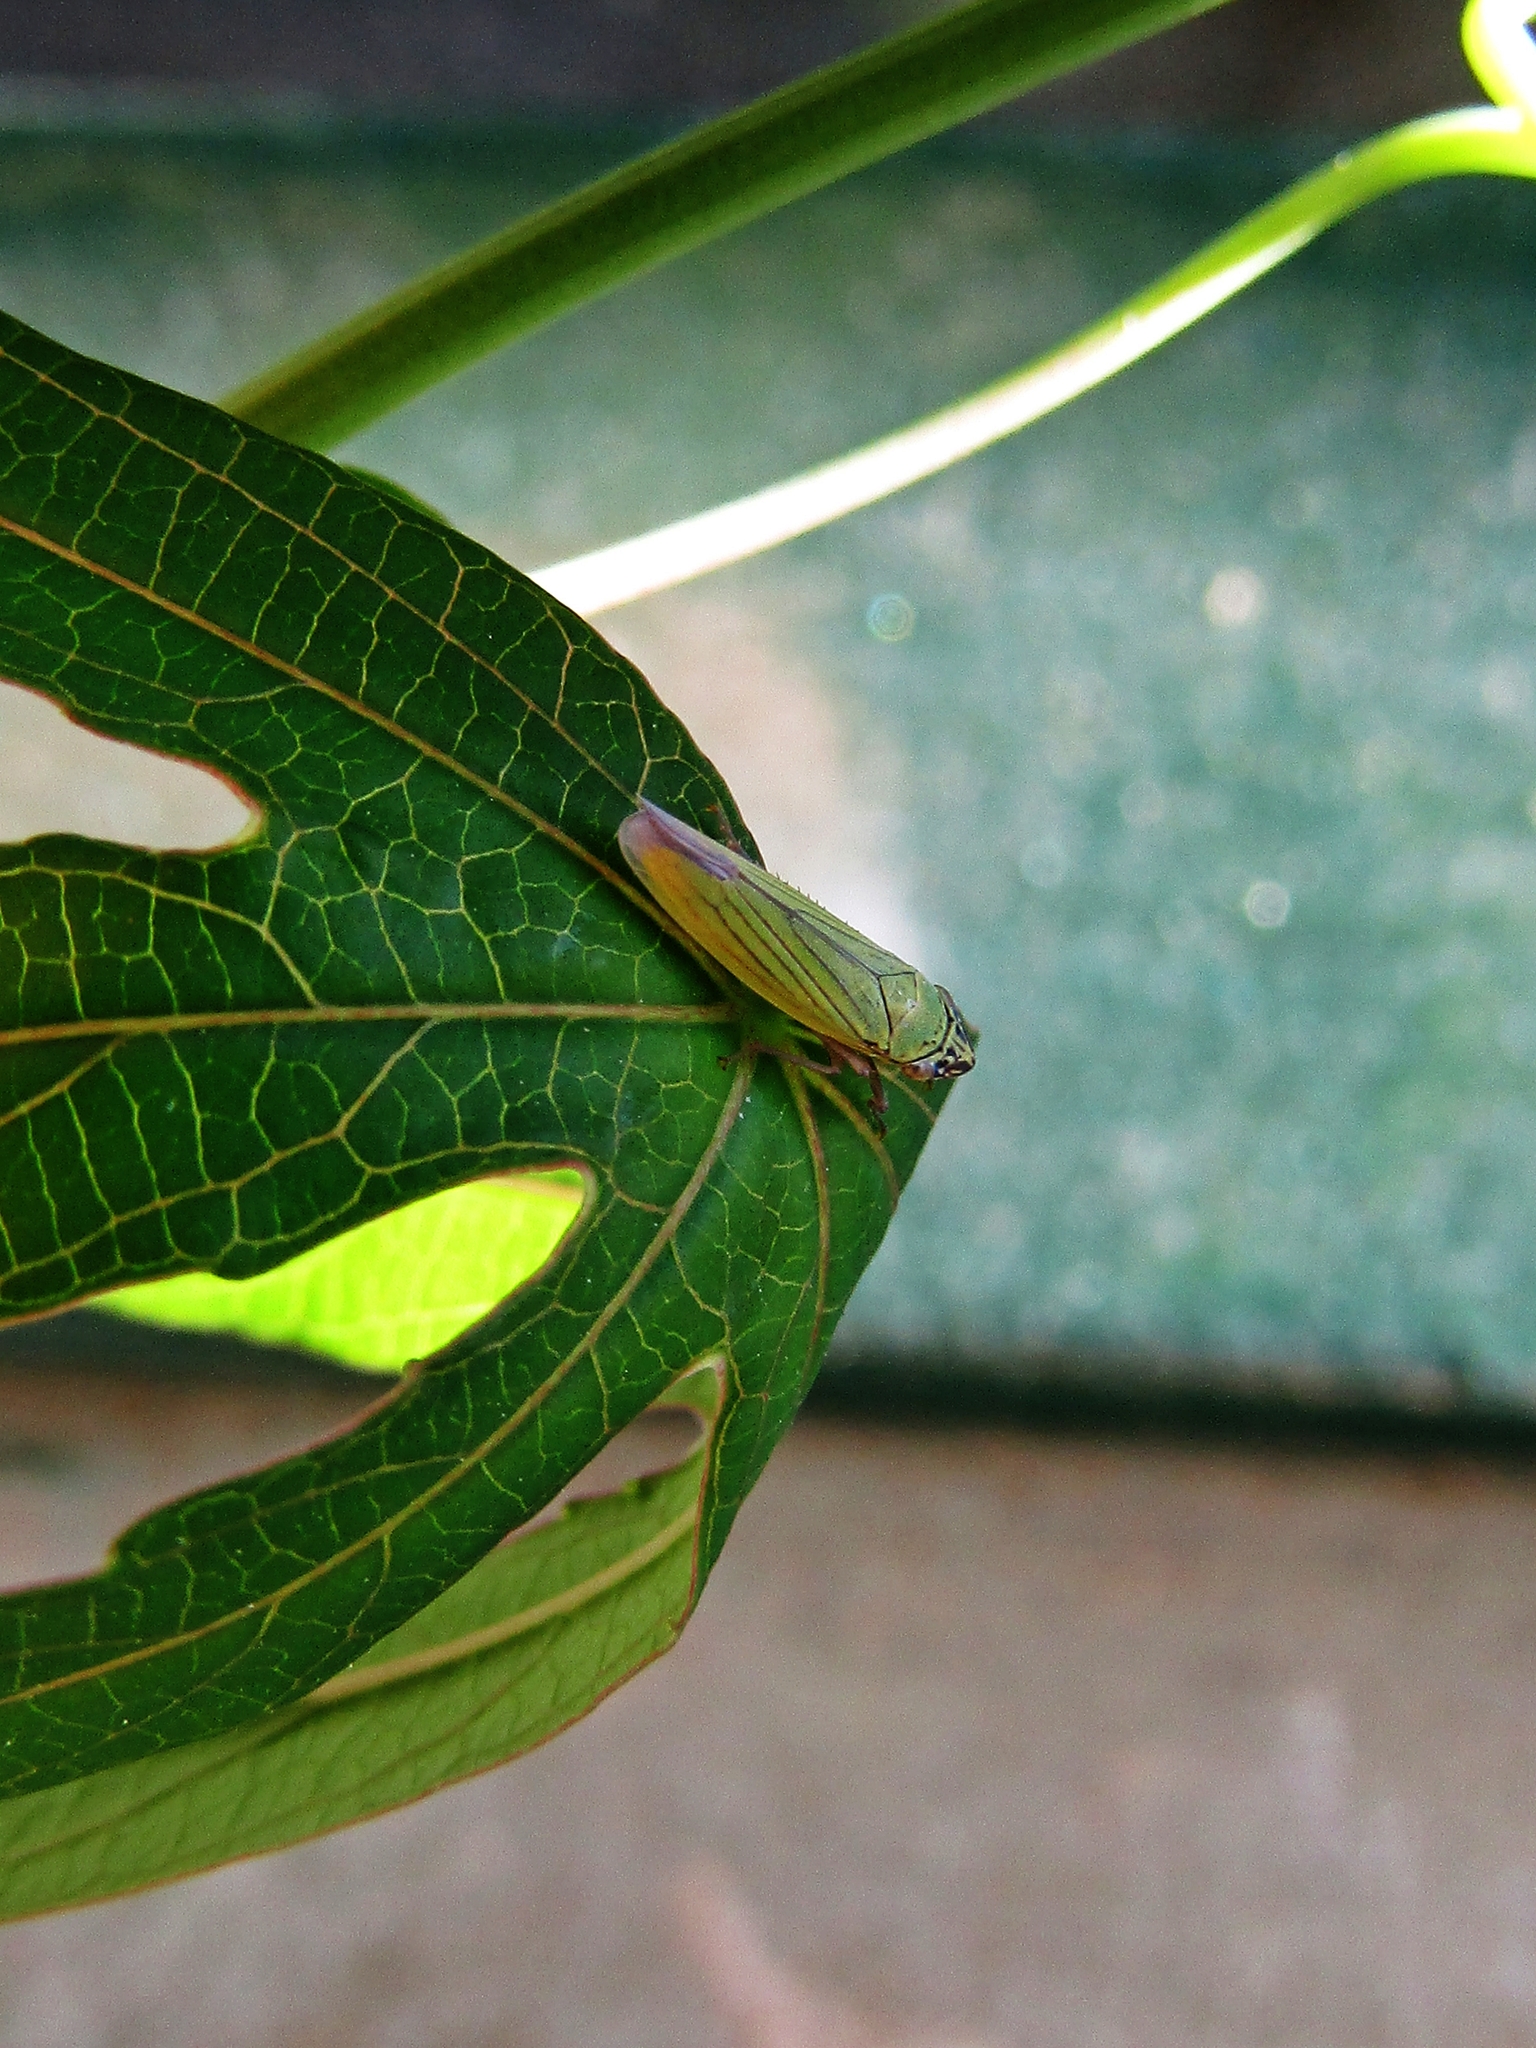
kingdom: Animalia
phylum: Arthropoda
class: Insecta
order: Hemiptera
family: Cicadellidae
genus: Syncharina
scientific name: Syncharina argentina
